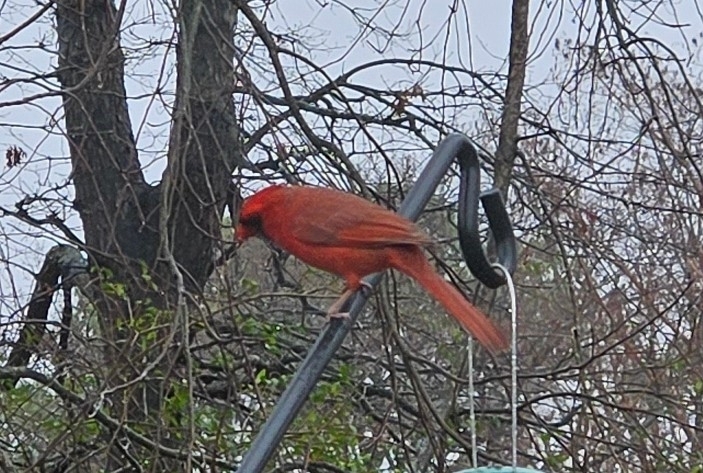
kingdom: Animalia
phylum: Chordata
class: Aves
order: Passeriformes
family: Cardinalidae
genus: Cardinalis
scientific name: Cardinalis cardinalis
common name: Northern cardinal
